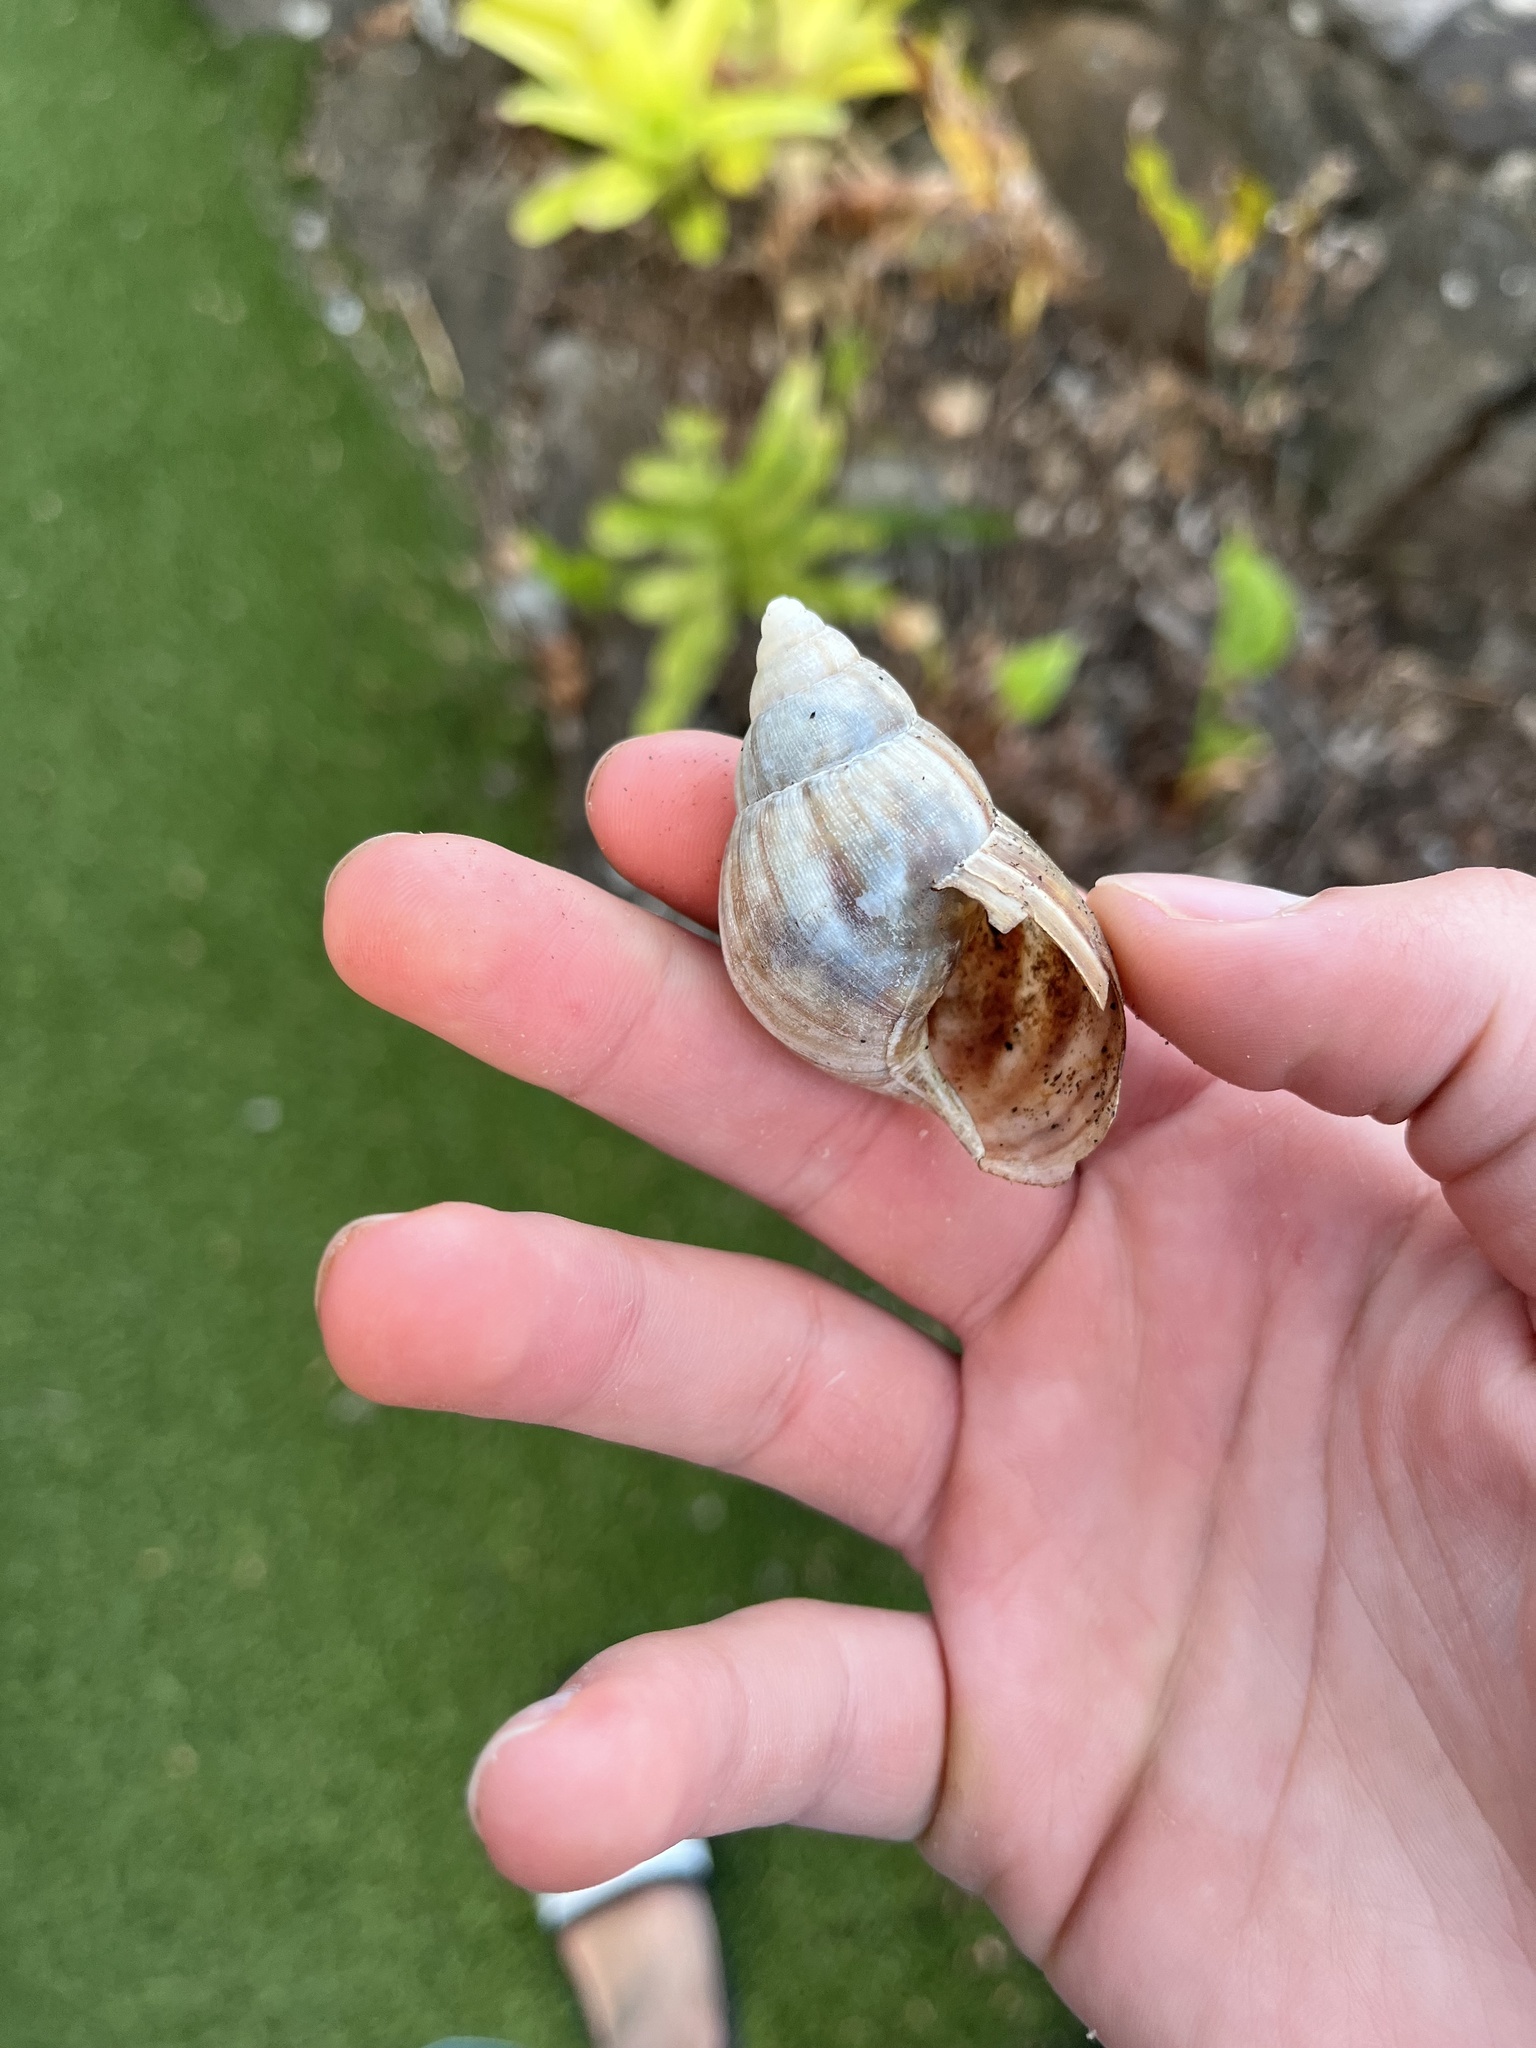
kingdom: Animalia
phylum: Mollusca
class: Gastropoda
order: Stylommatophora
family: Achatinidae
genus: Lissachatina
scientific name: Lissachatina fulica
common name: Giant african snail
